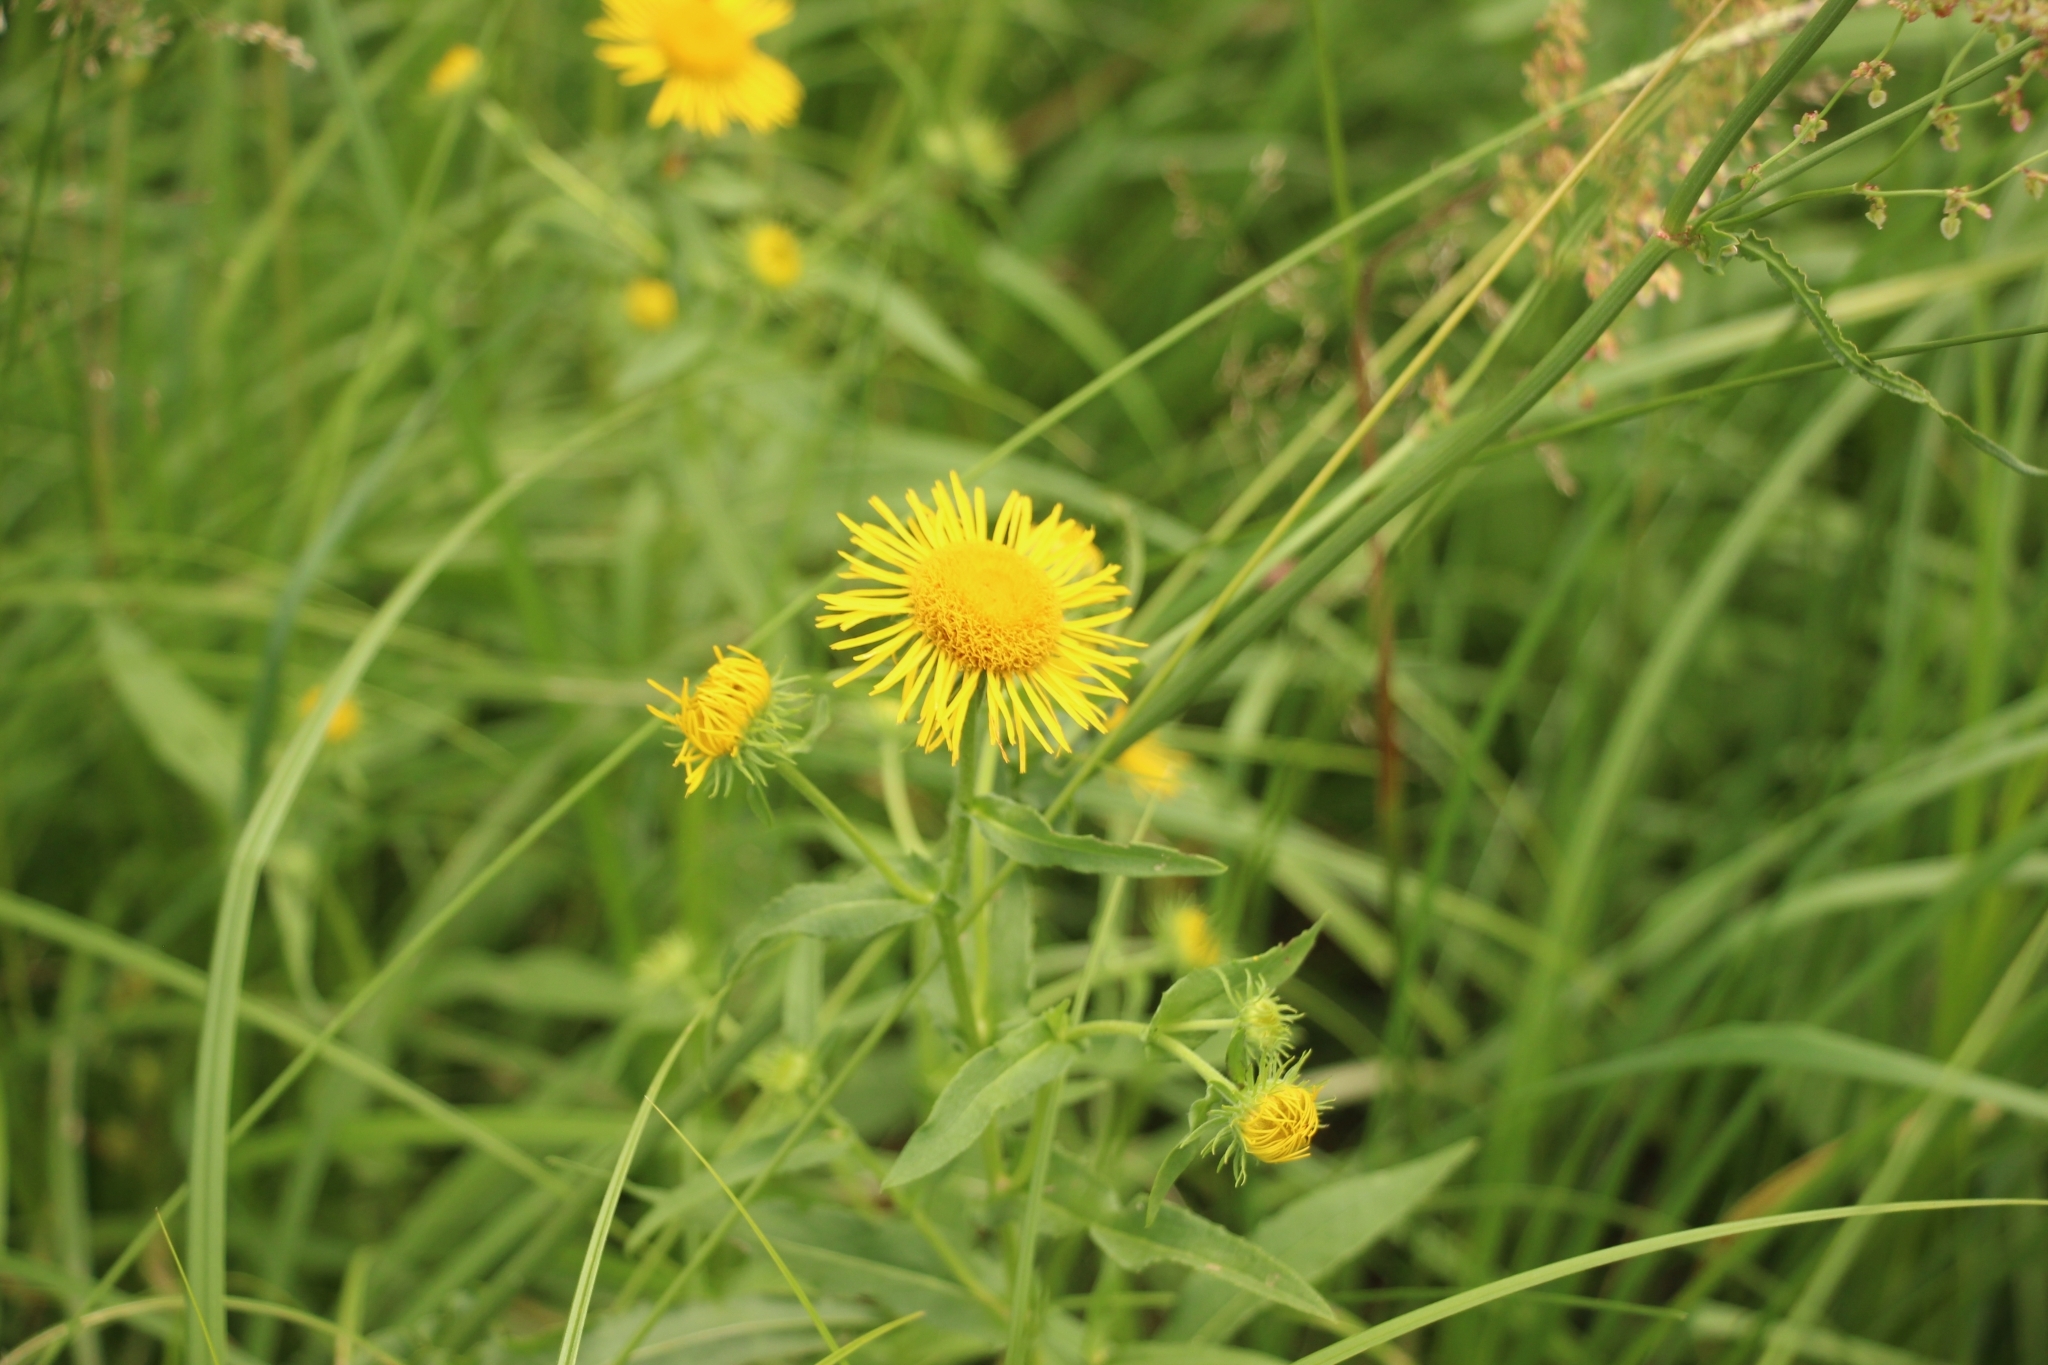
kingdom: Plantae
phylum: Tracheophyta
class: Magnoliopsida
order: Asterales
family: Asteraceae
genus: Pentanema
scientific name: Pentanema britannicum
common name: British elecampane
